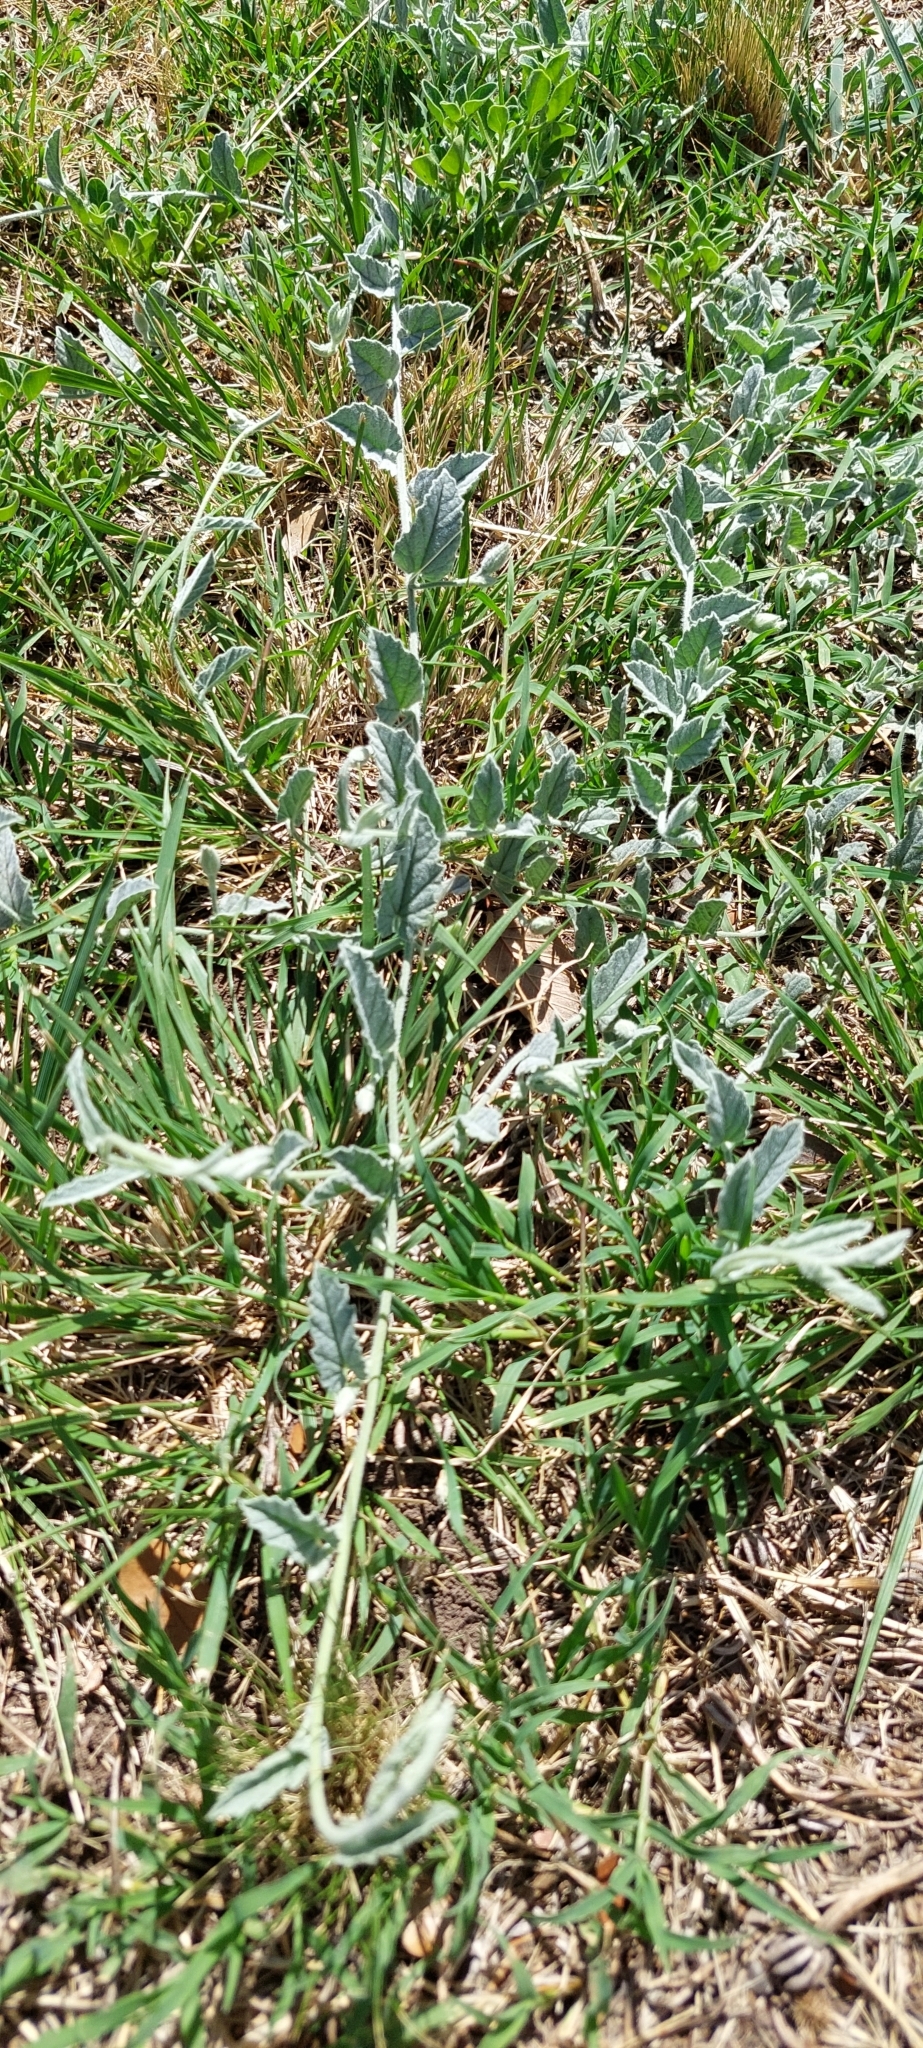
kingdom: Plantae
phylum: Tracheophyta
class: Magnoliopsida
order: Solanales
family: Convolvulaceae
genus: Convolvulus
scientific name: Convolvulus hermanniae
